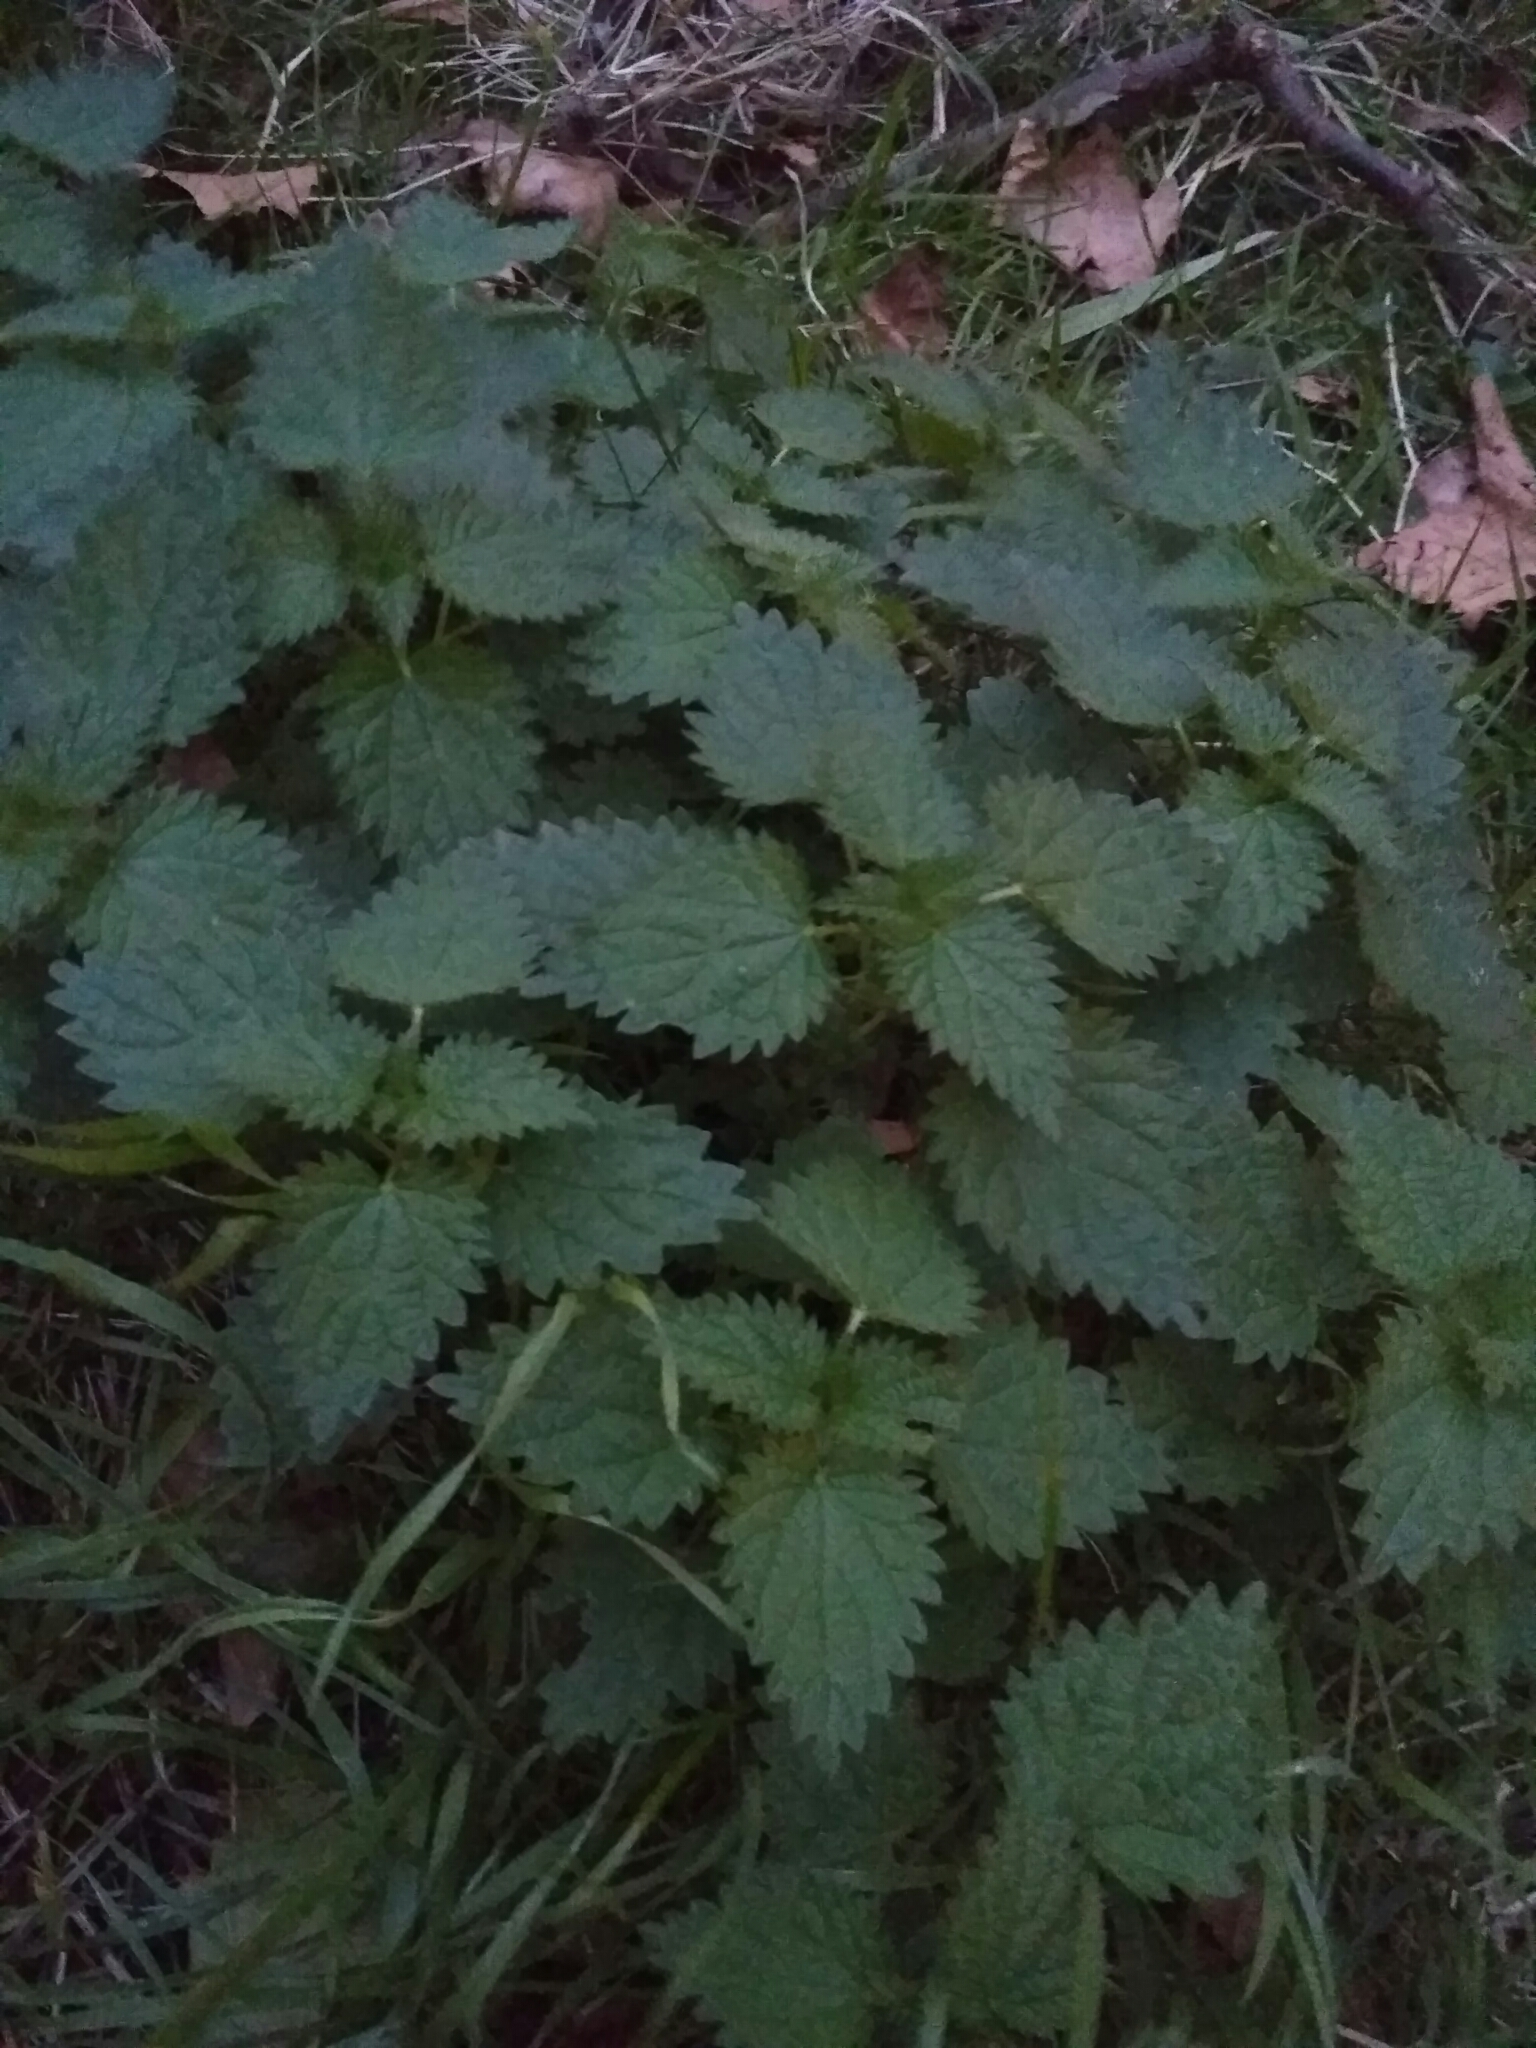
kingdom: Plantae
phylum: Tracheophyta
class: Magnoliopsida
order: Rosales
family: Urticaceae
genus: Urtica
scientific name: Urtica dioica
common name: Common nettle
